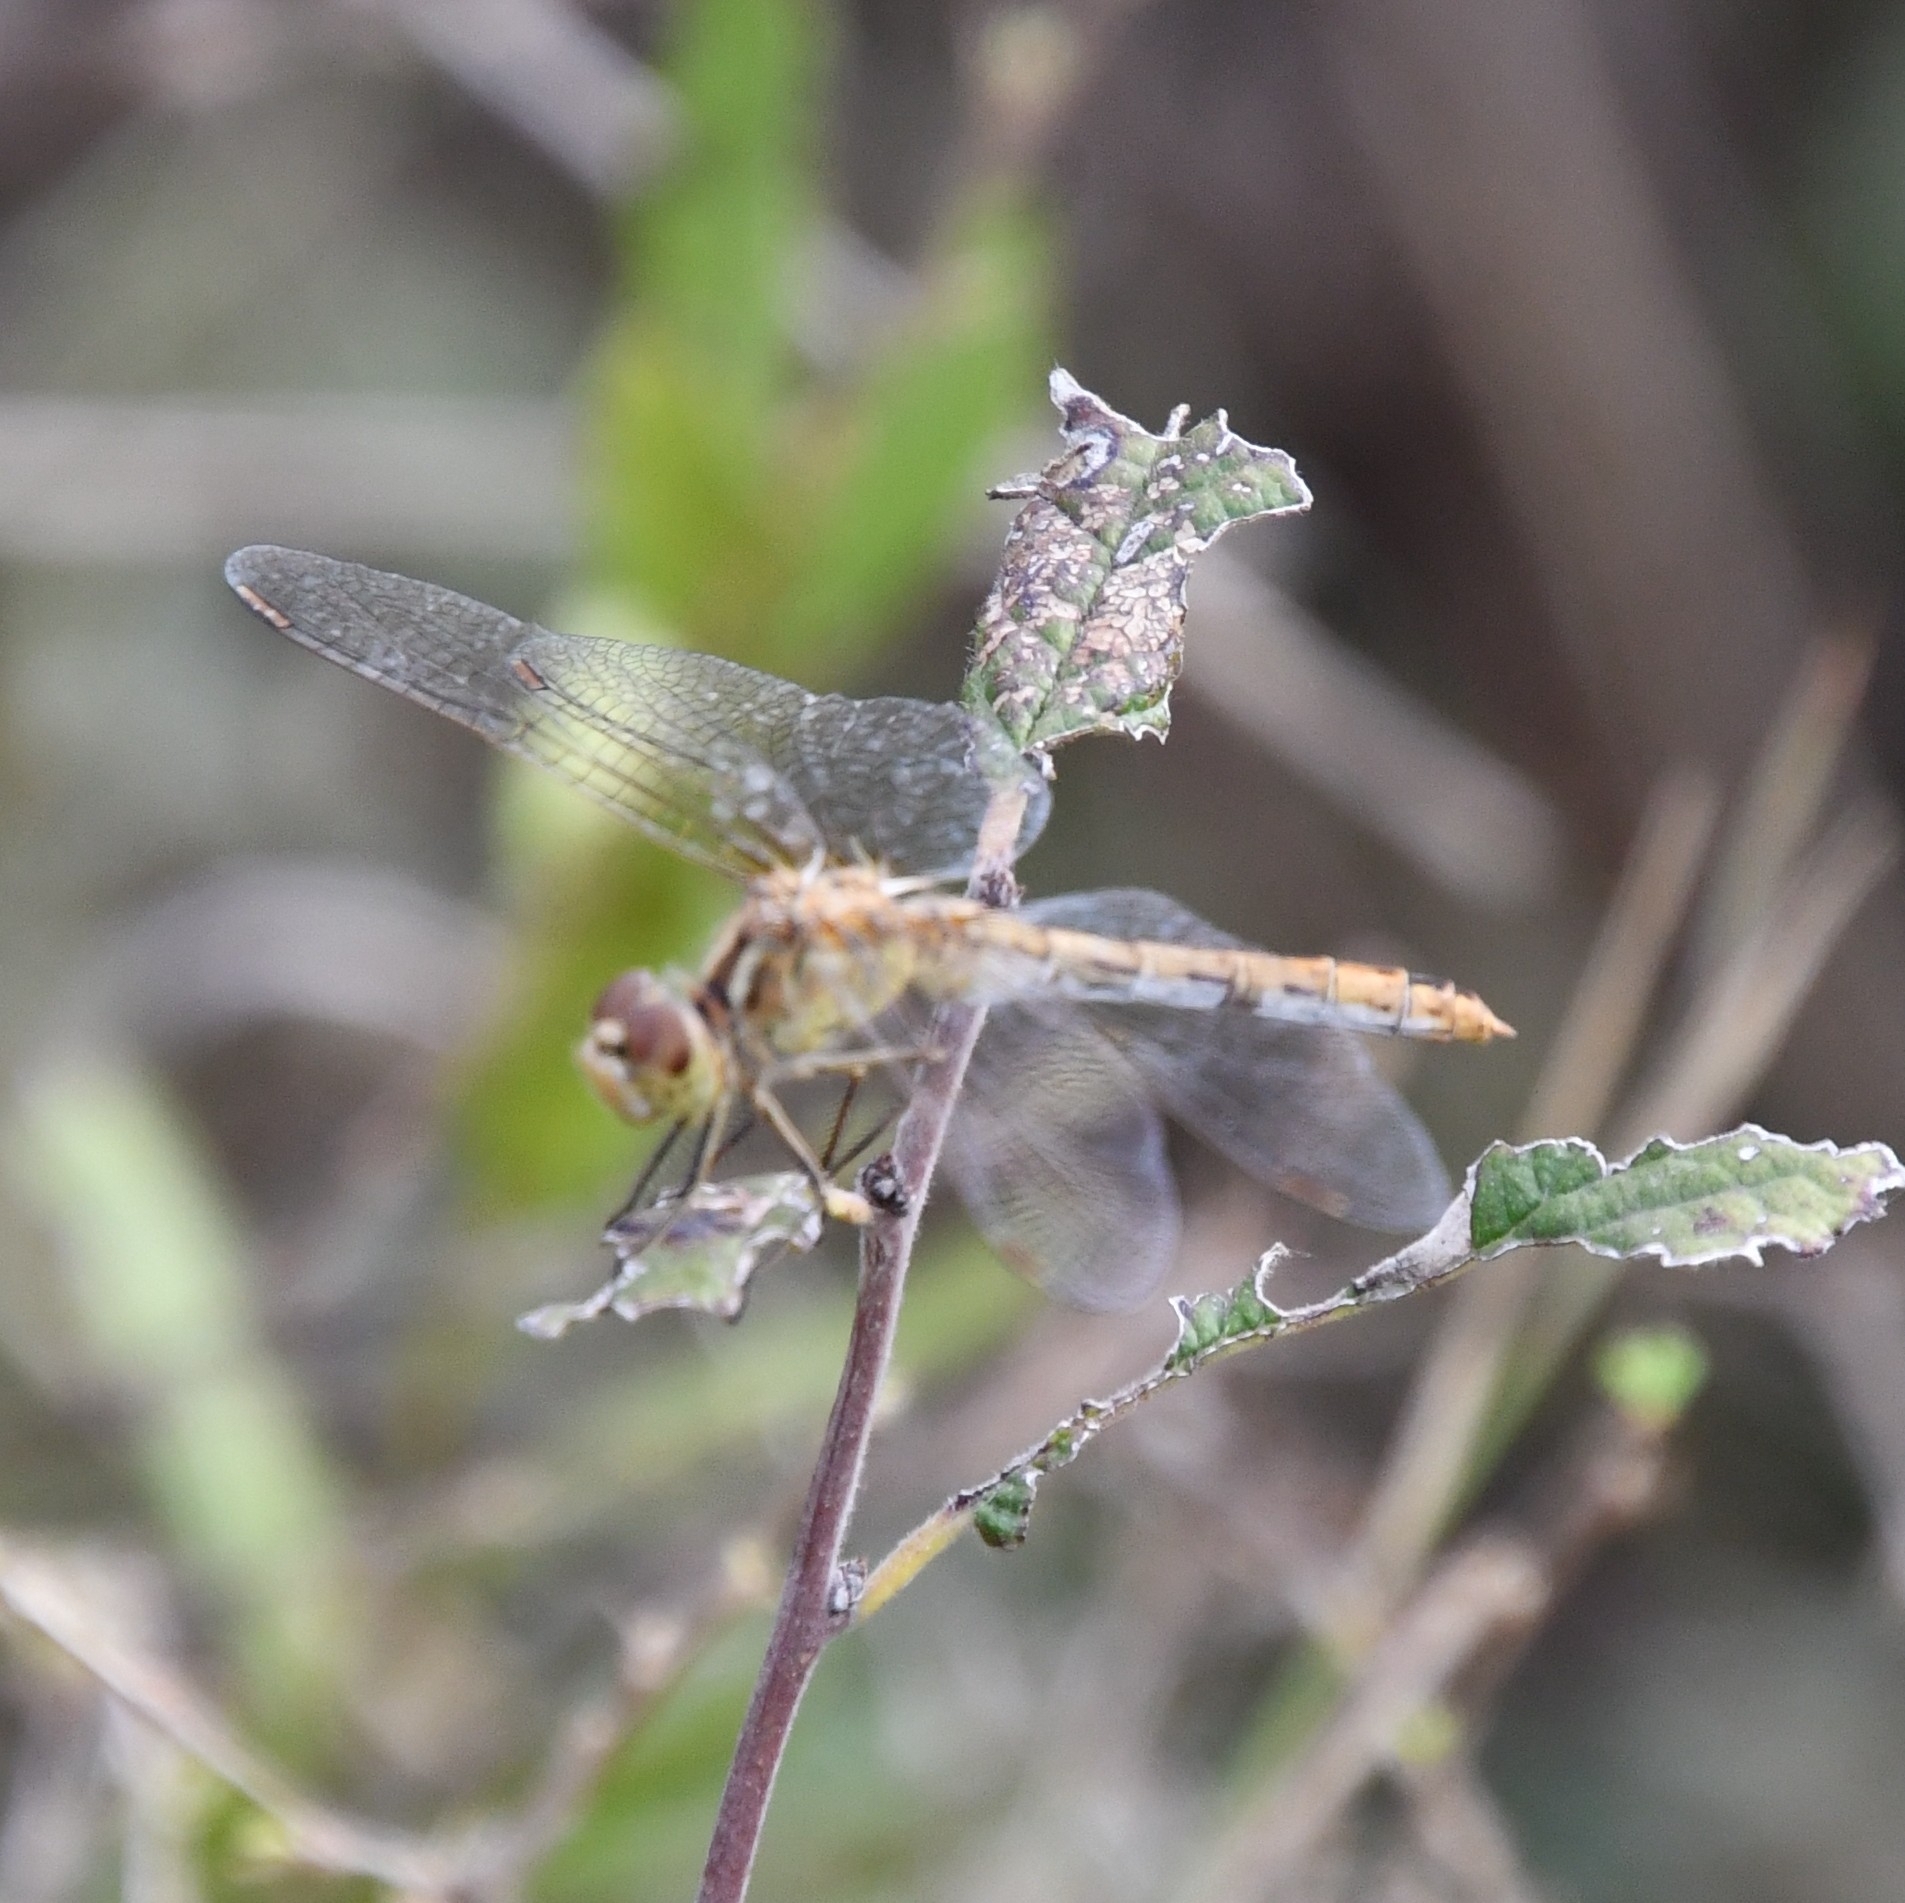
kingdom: Animalia
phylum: Arthropoda
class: Insecta
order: Odonata
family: Libellulidae
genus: Sympetrum
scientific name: Sympetrum meridionale
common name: Southern darter
